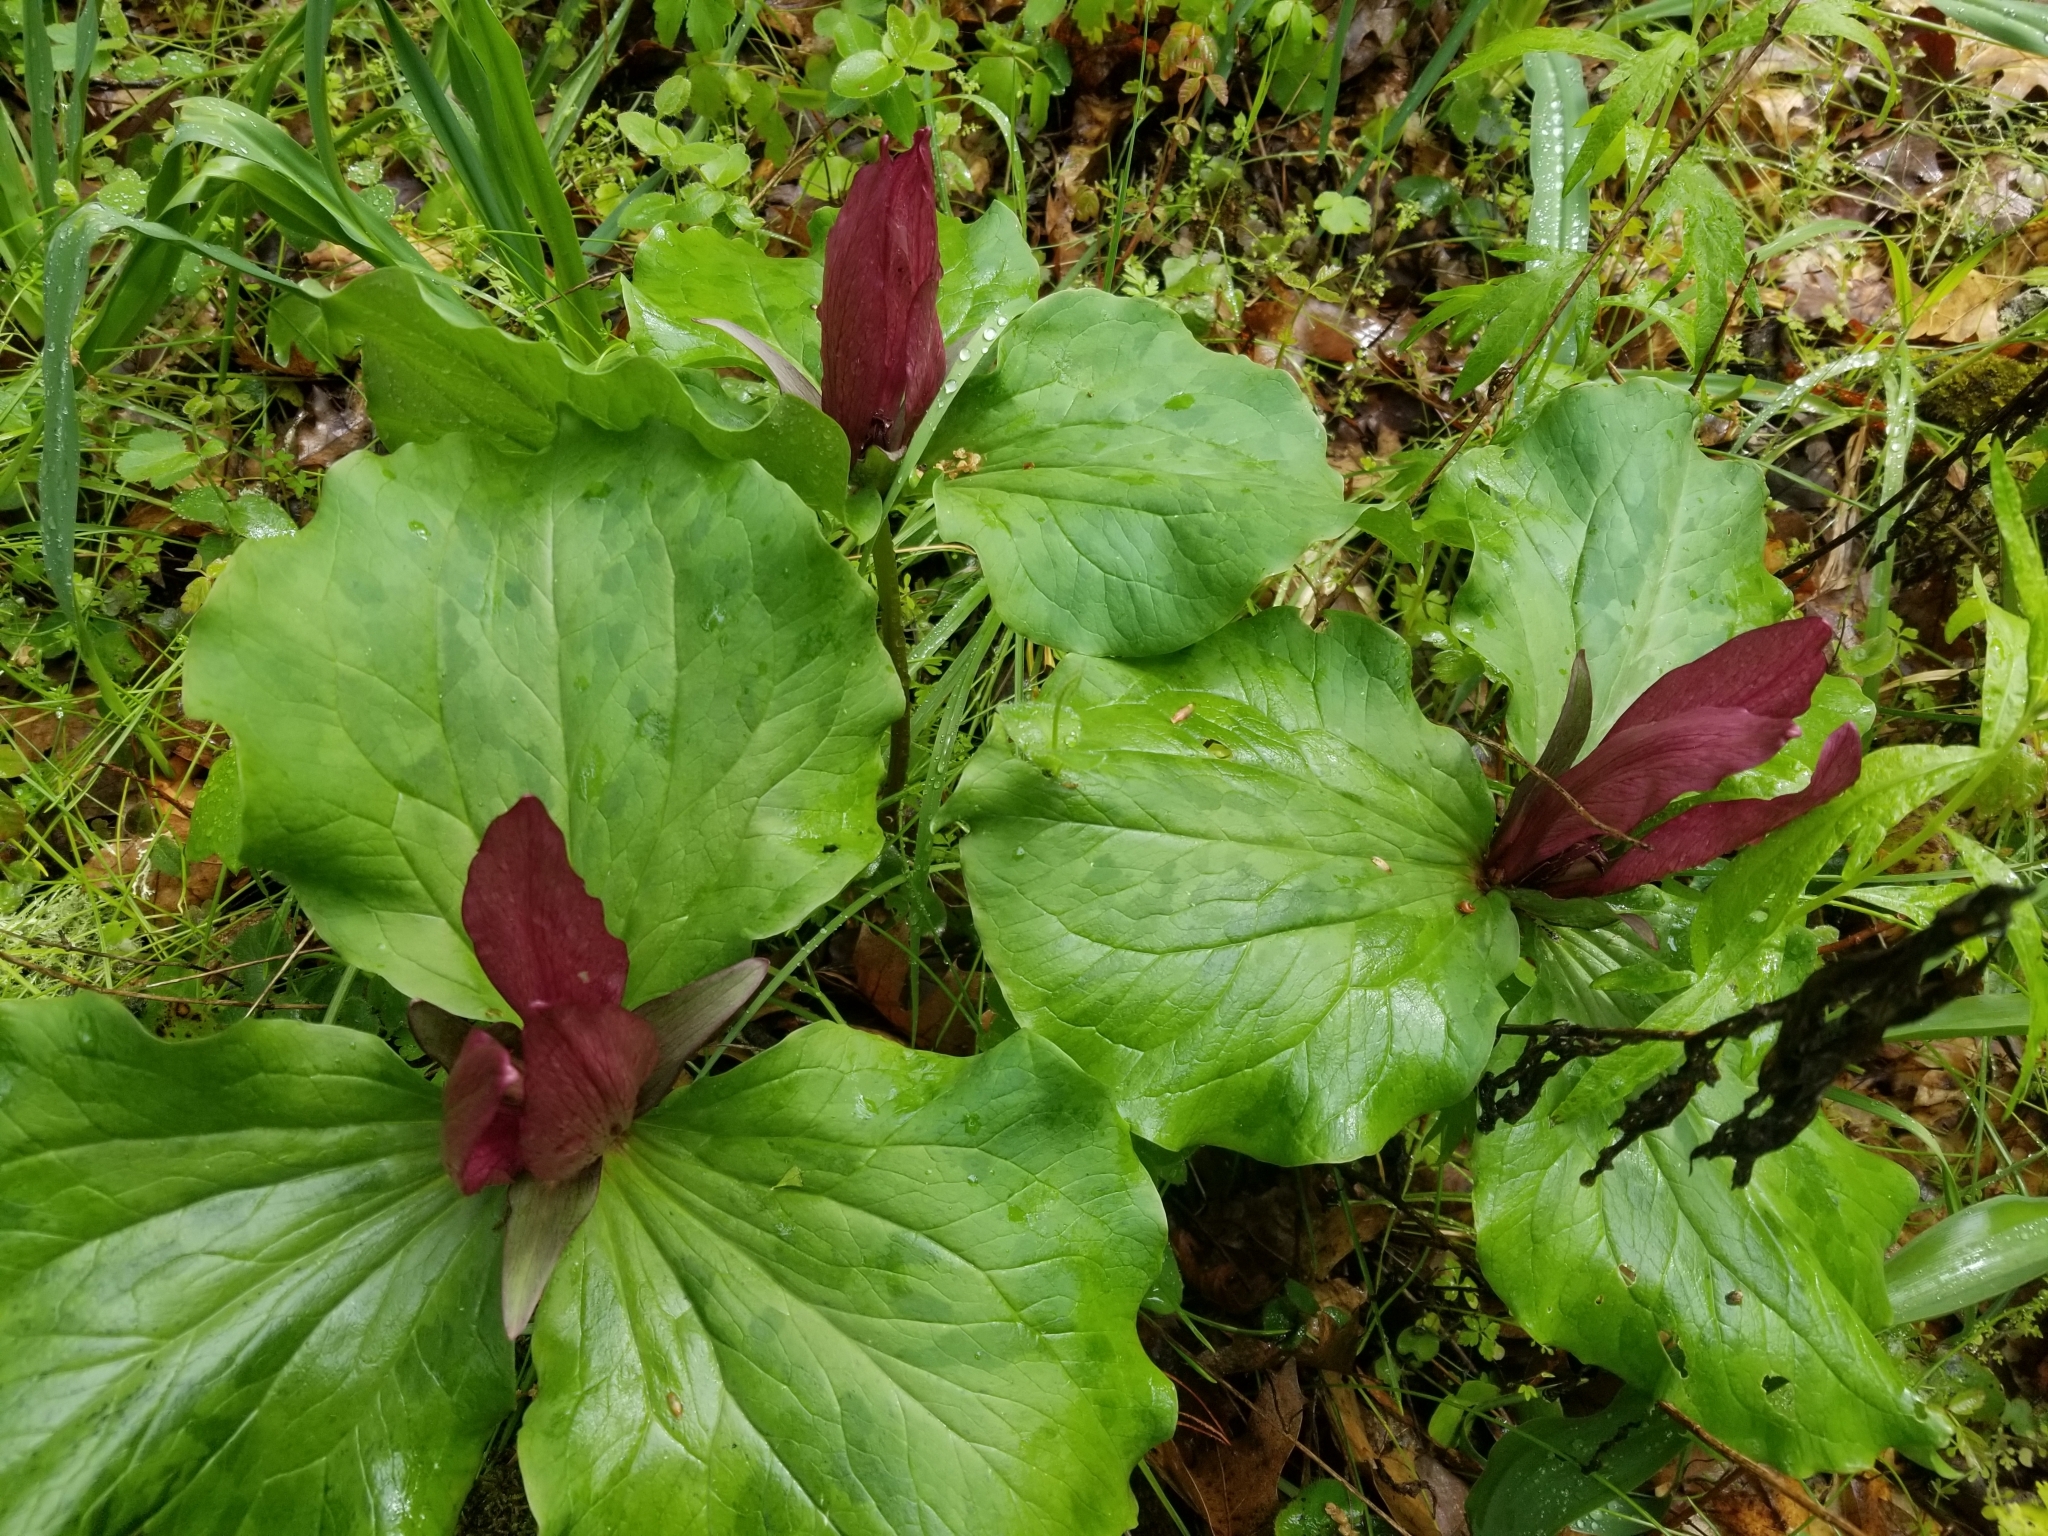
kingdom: Plantae
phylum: Tracheophyta
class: Liliopsida
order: Liliales
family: Melanthiaceae
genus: Trillium
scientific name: Trillium chloropetalum
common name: Giant trillium
